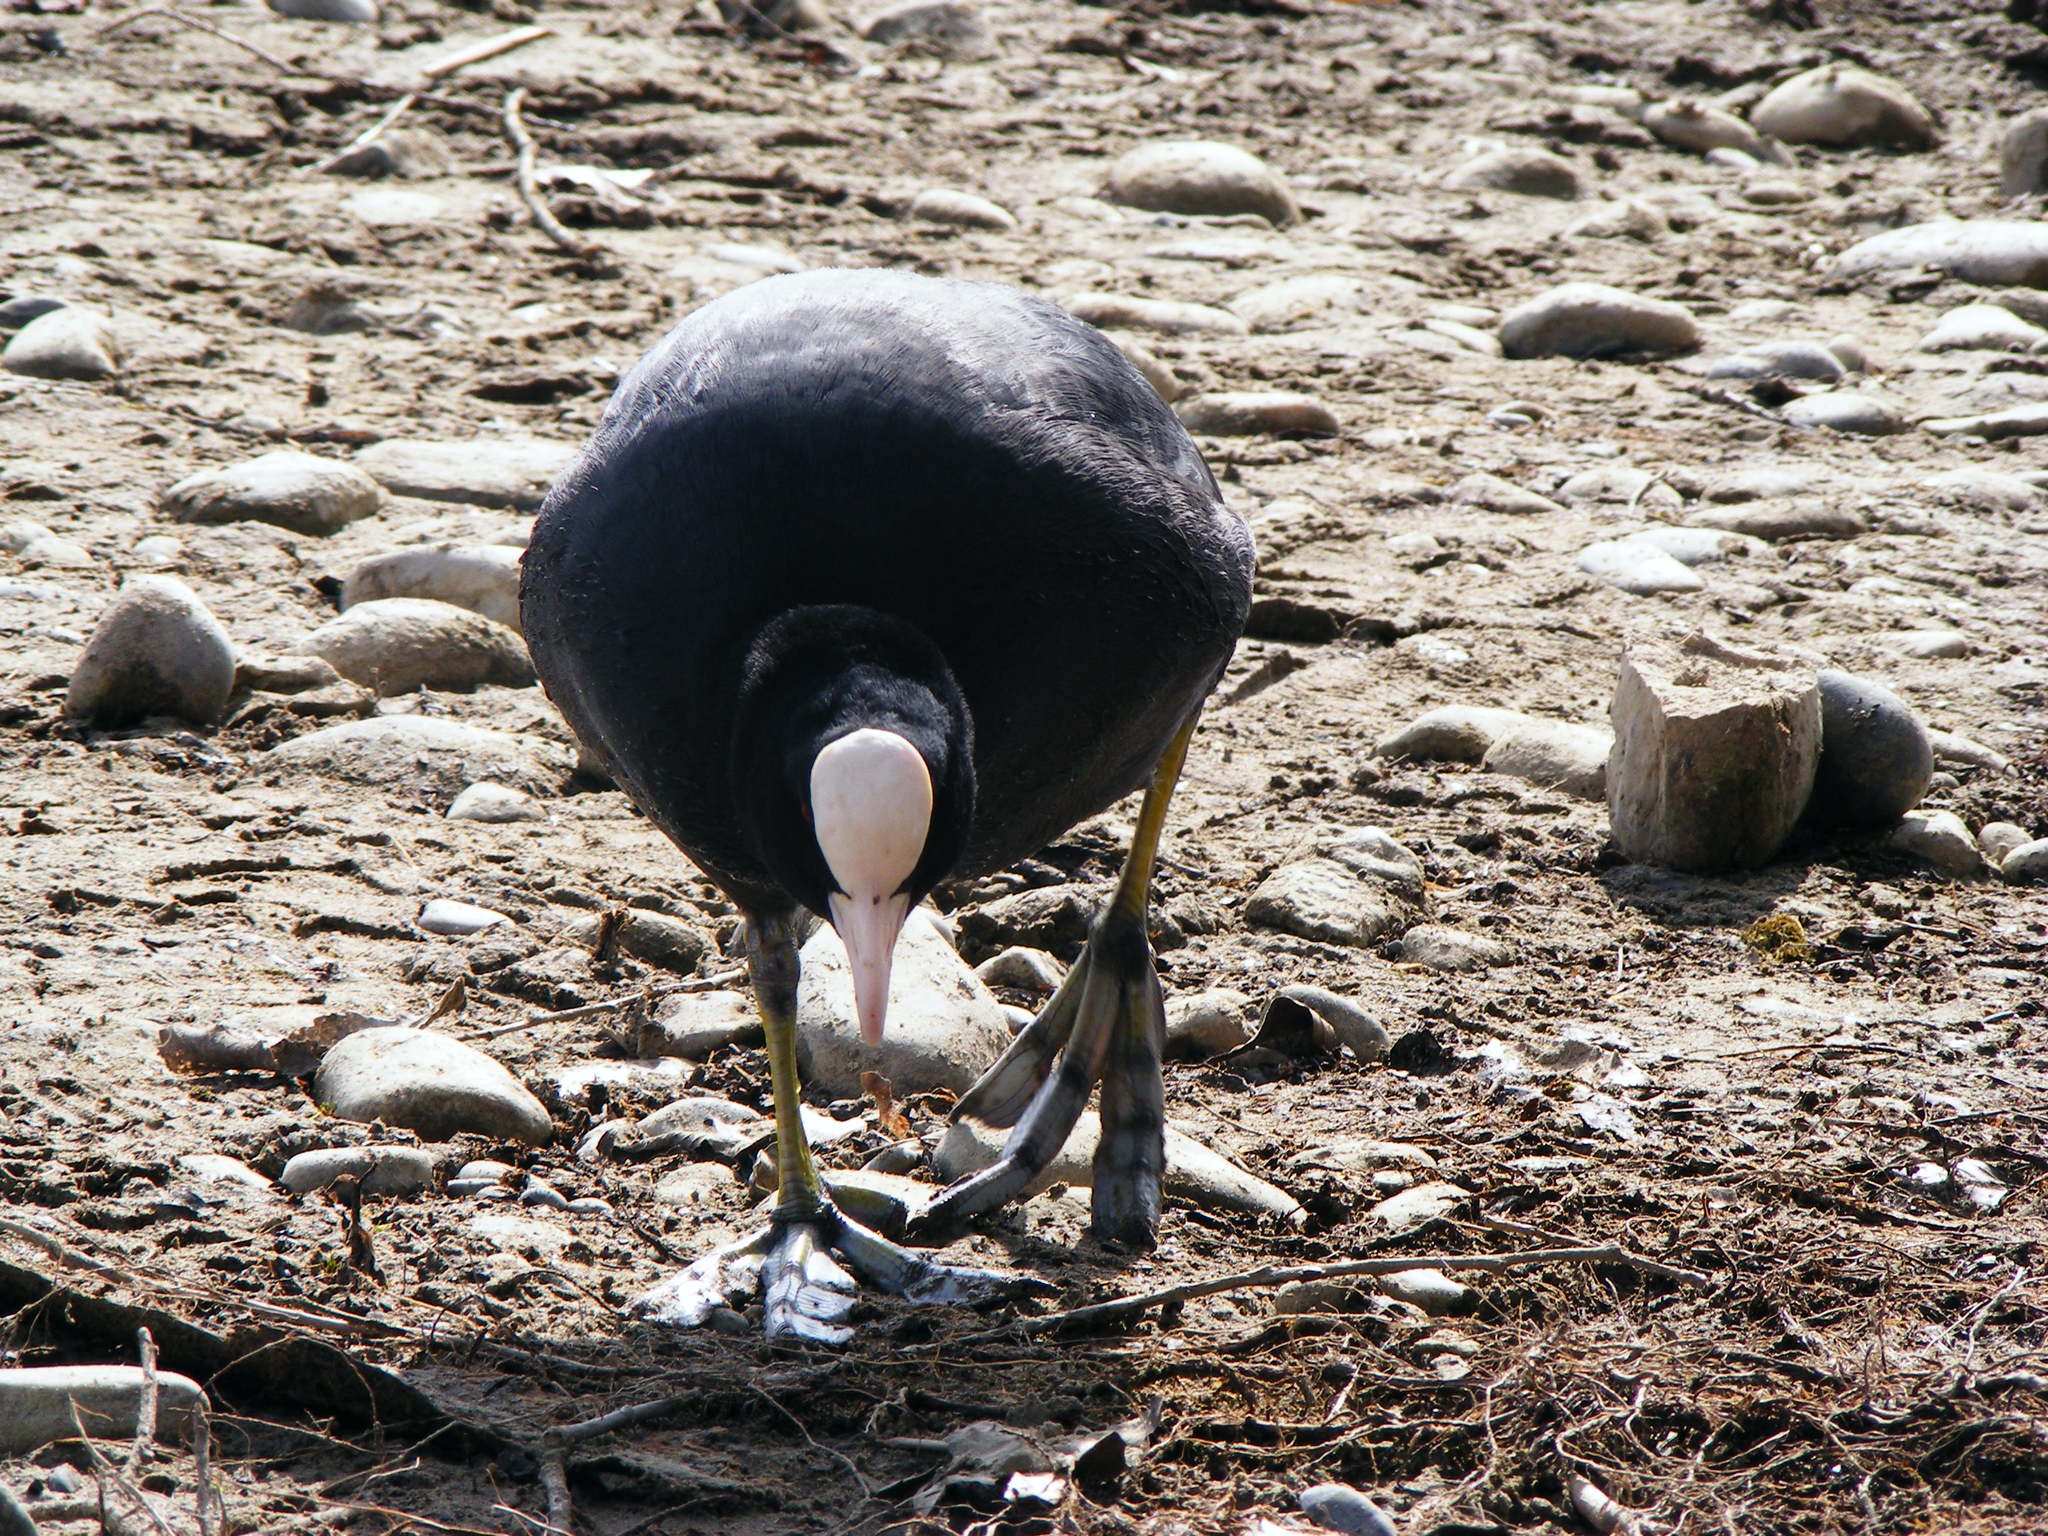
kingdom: Animalia
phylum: Chordata
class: Aves
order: Gruiformes
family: Rallidae
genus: Fulica
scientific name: Fulica atra
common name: Eurasian coot
